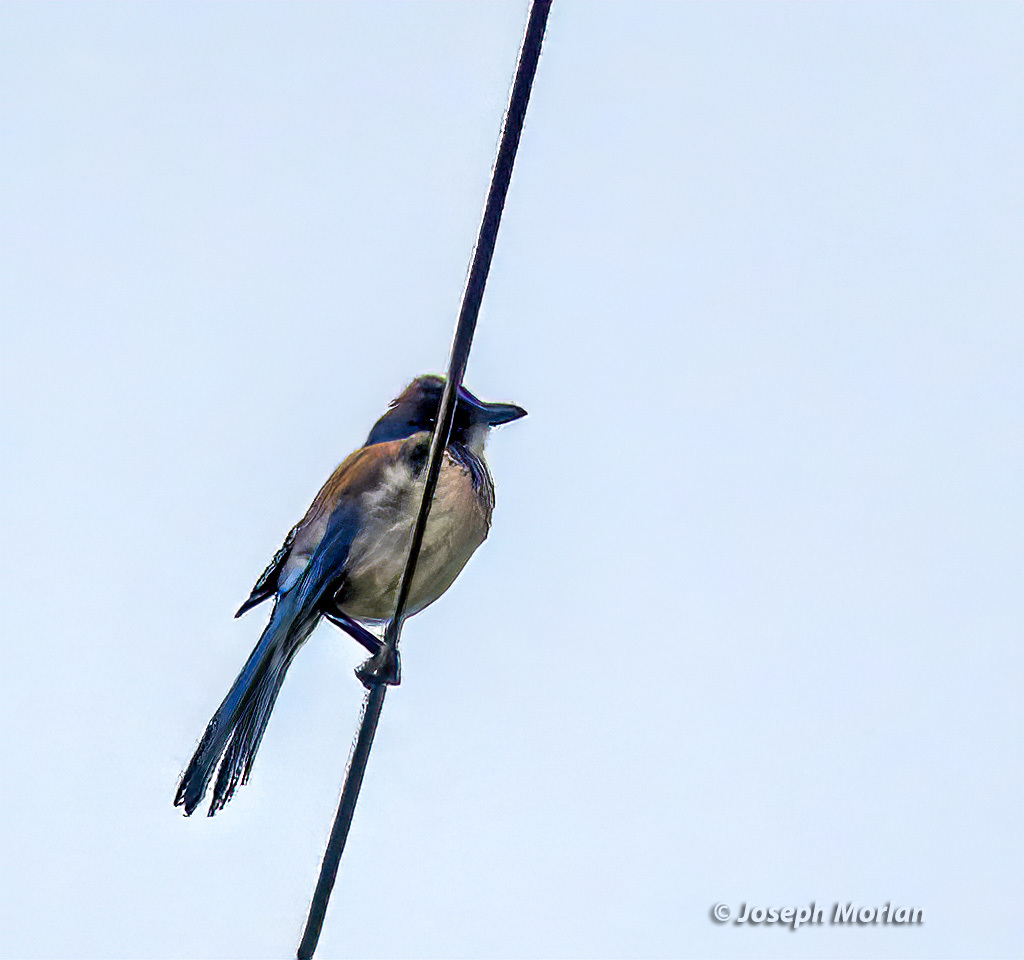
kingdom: Animalia
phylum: Chordata
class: Aves
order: Passeriformes
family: Corvidae
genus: Aphelocoma
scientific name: Aphelocoma californica
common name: California scrub-jay
